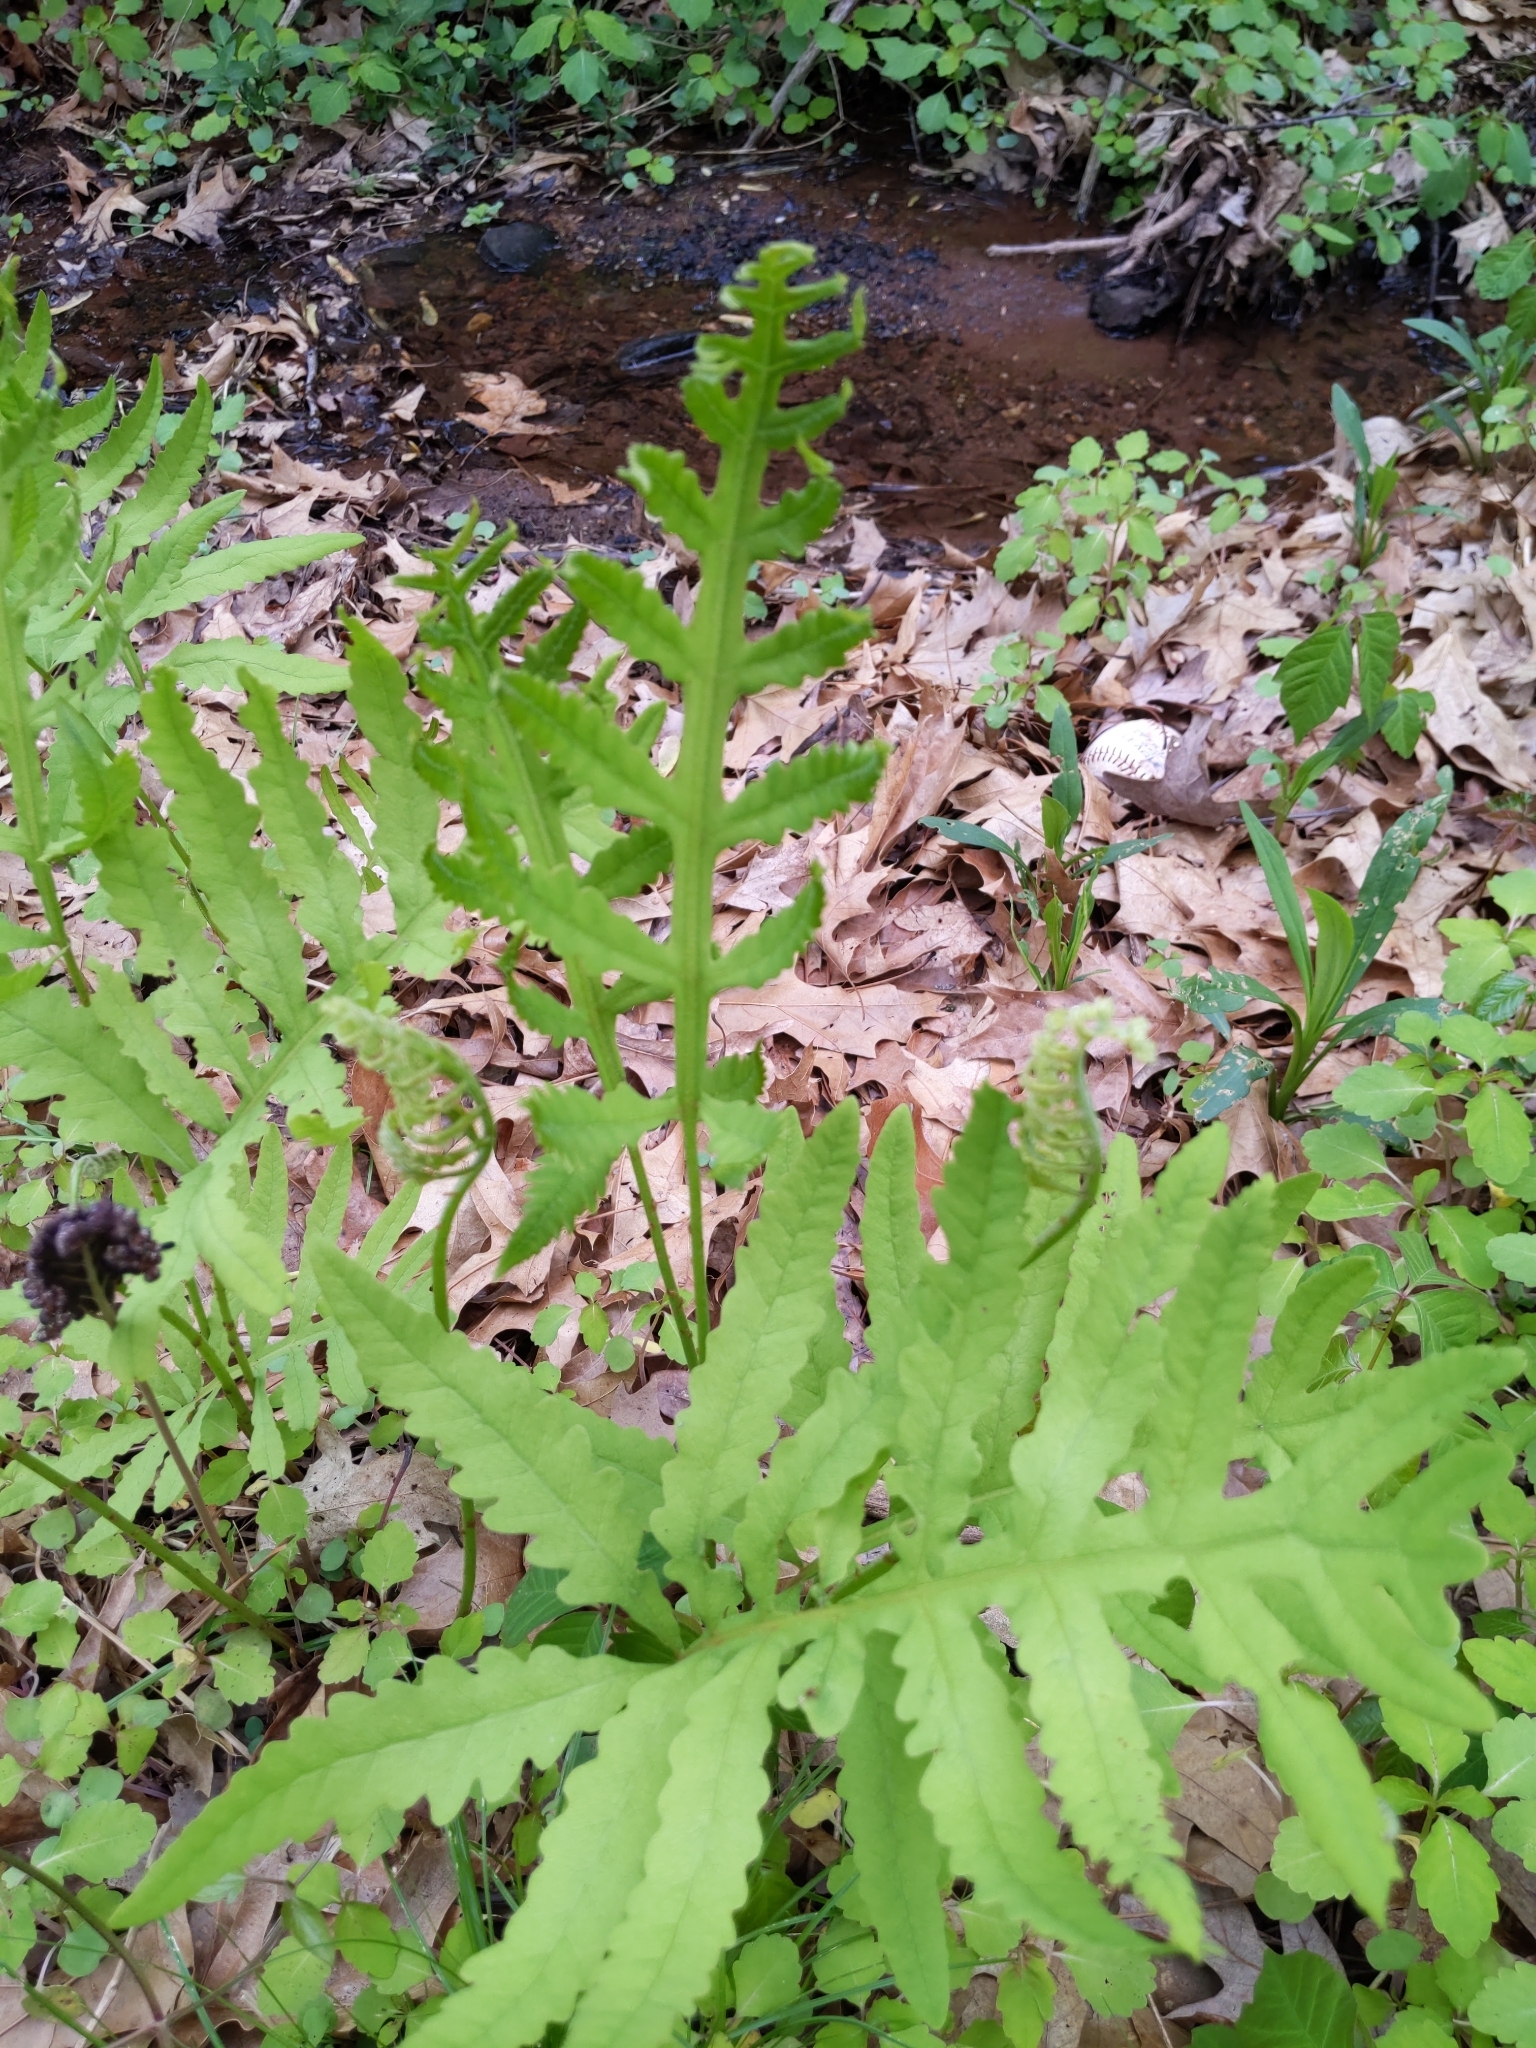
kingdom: Plantae
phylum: Tracheophyta
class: Polypodiopsida
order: Polypodiales
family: Onocleaceae
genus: Onoclea
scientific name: Onoclea sensibilis
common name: Sensitive fern
